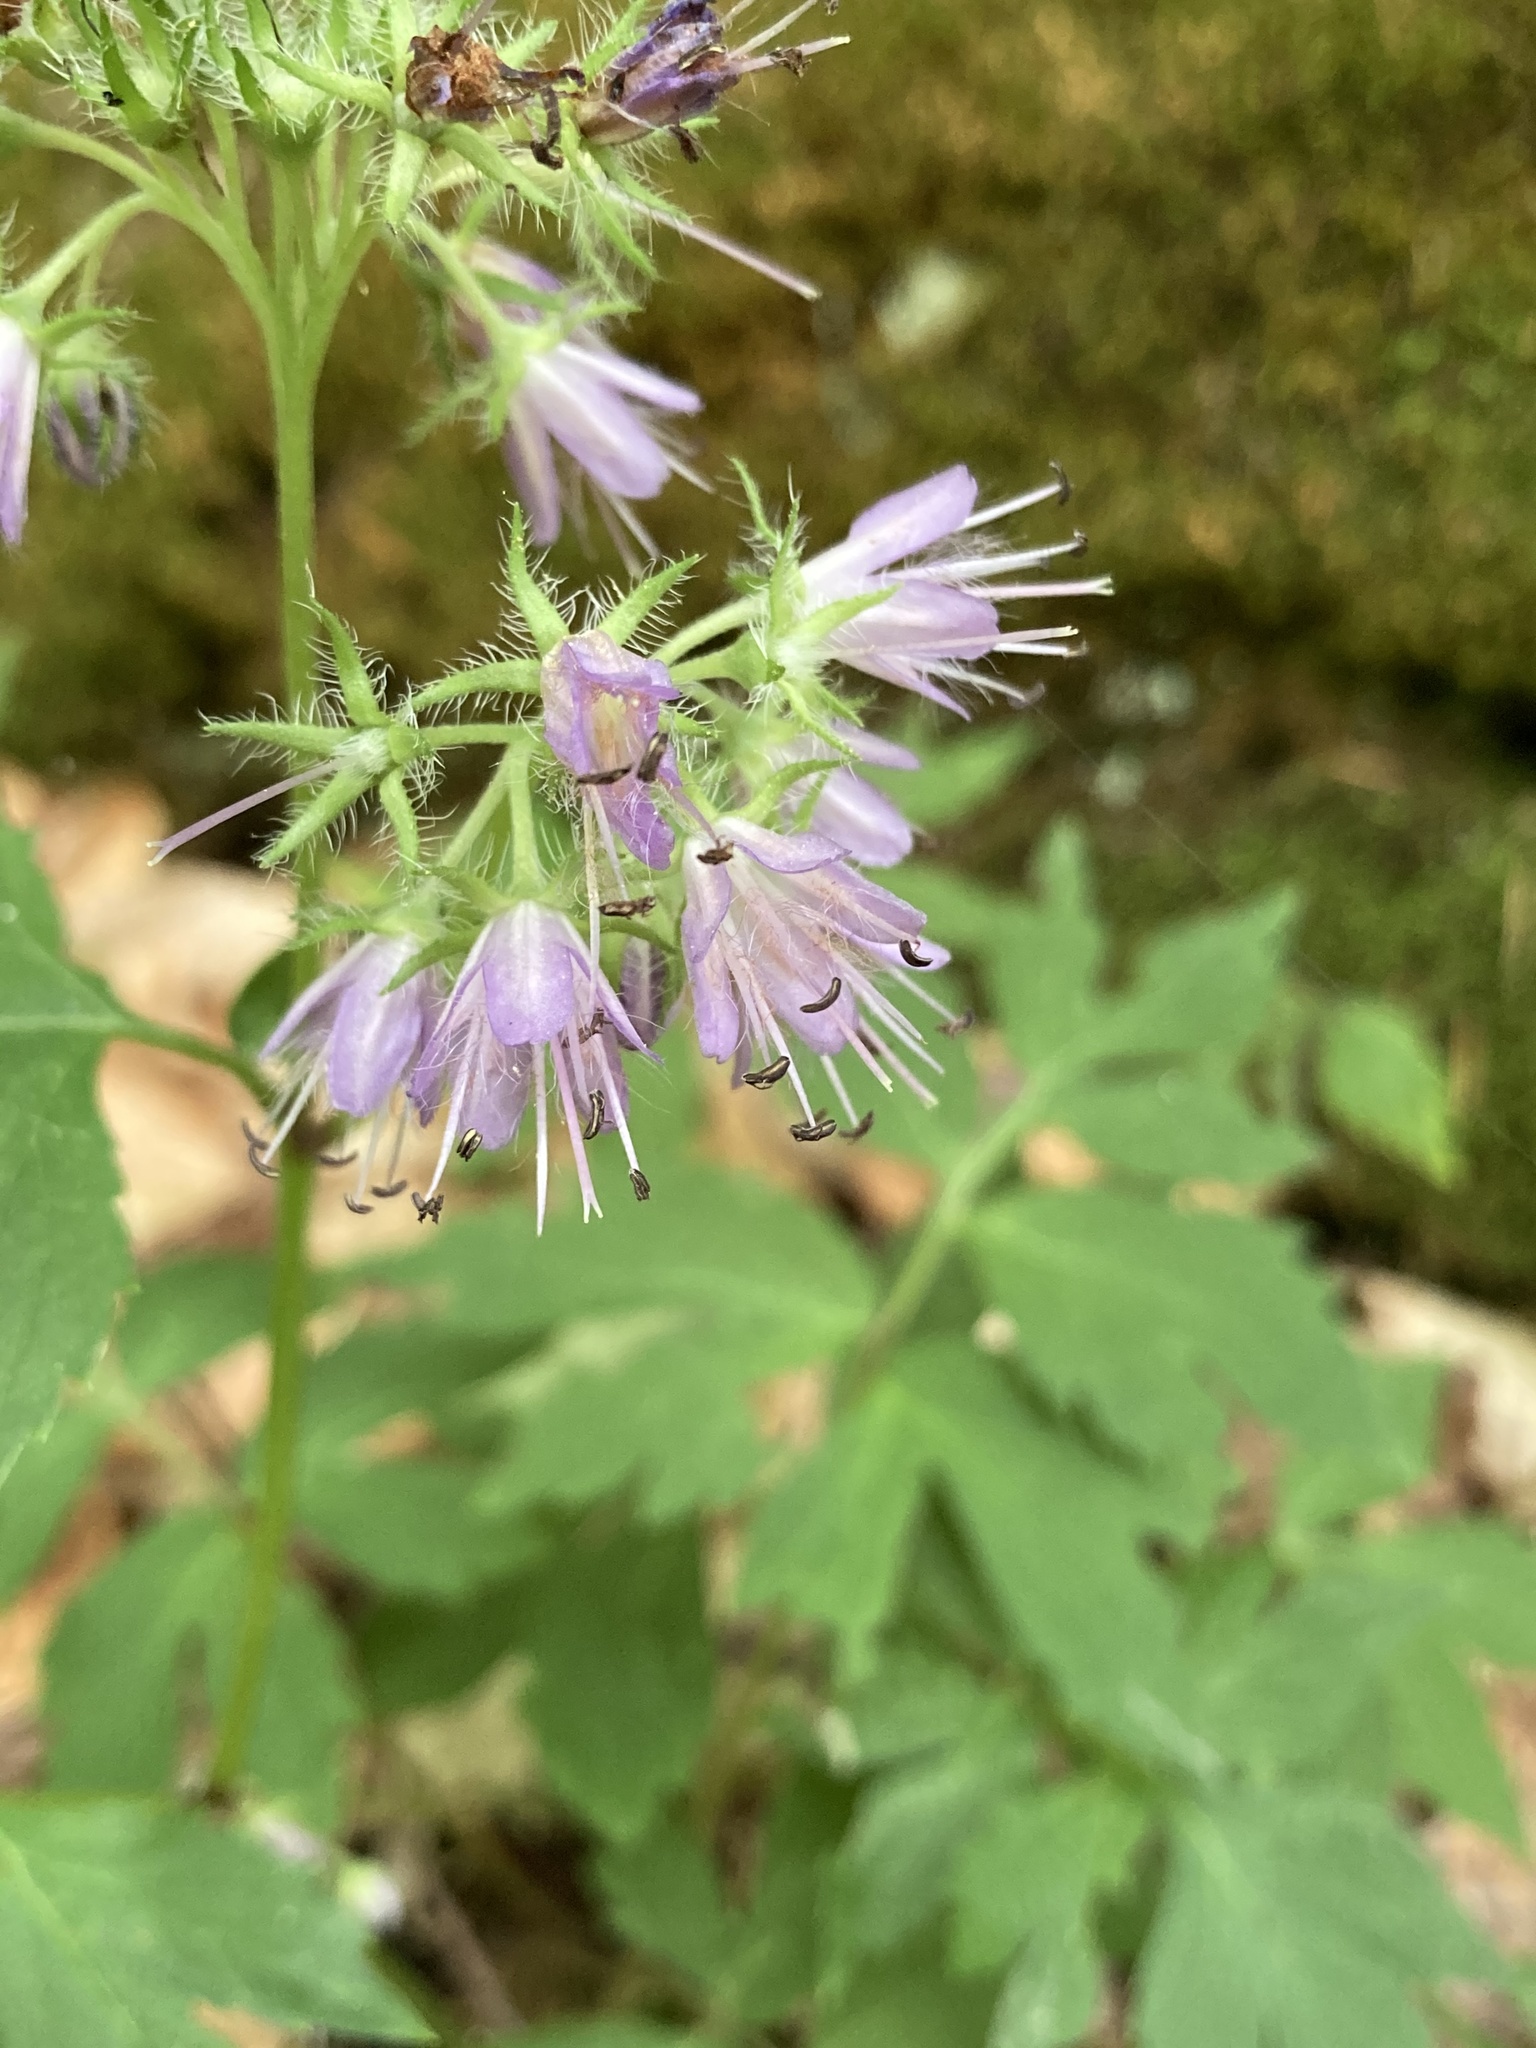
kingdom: Plantae
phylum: Tracheophyta
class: Magnoliopsida
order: Boraginales
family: Hydrophyllaceae
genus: Hydrophyllum
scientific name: Hydrophyllum virginianum
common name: Virginia waterleaf
